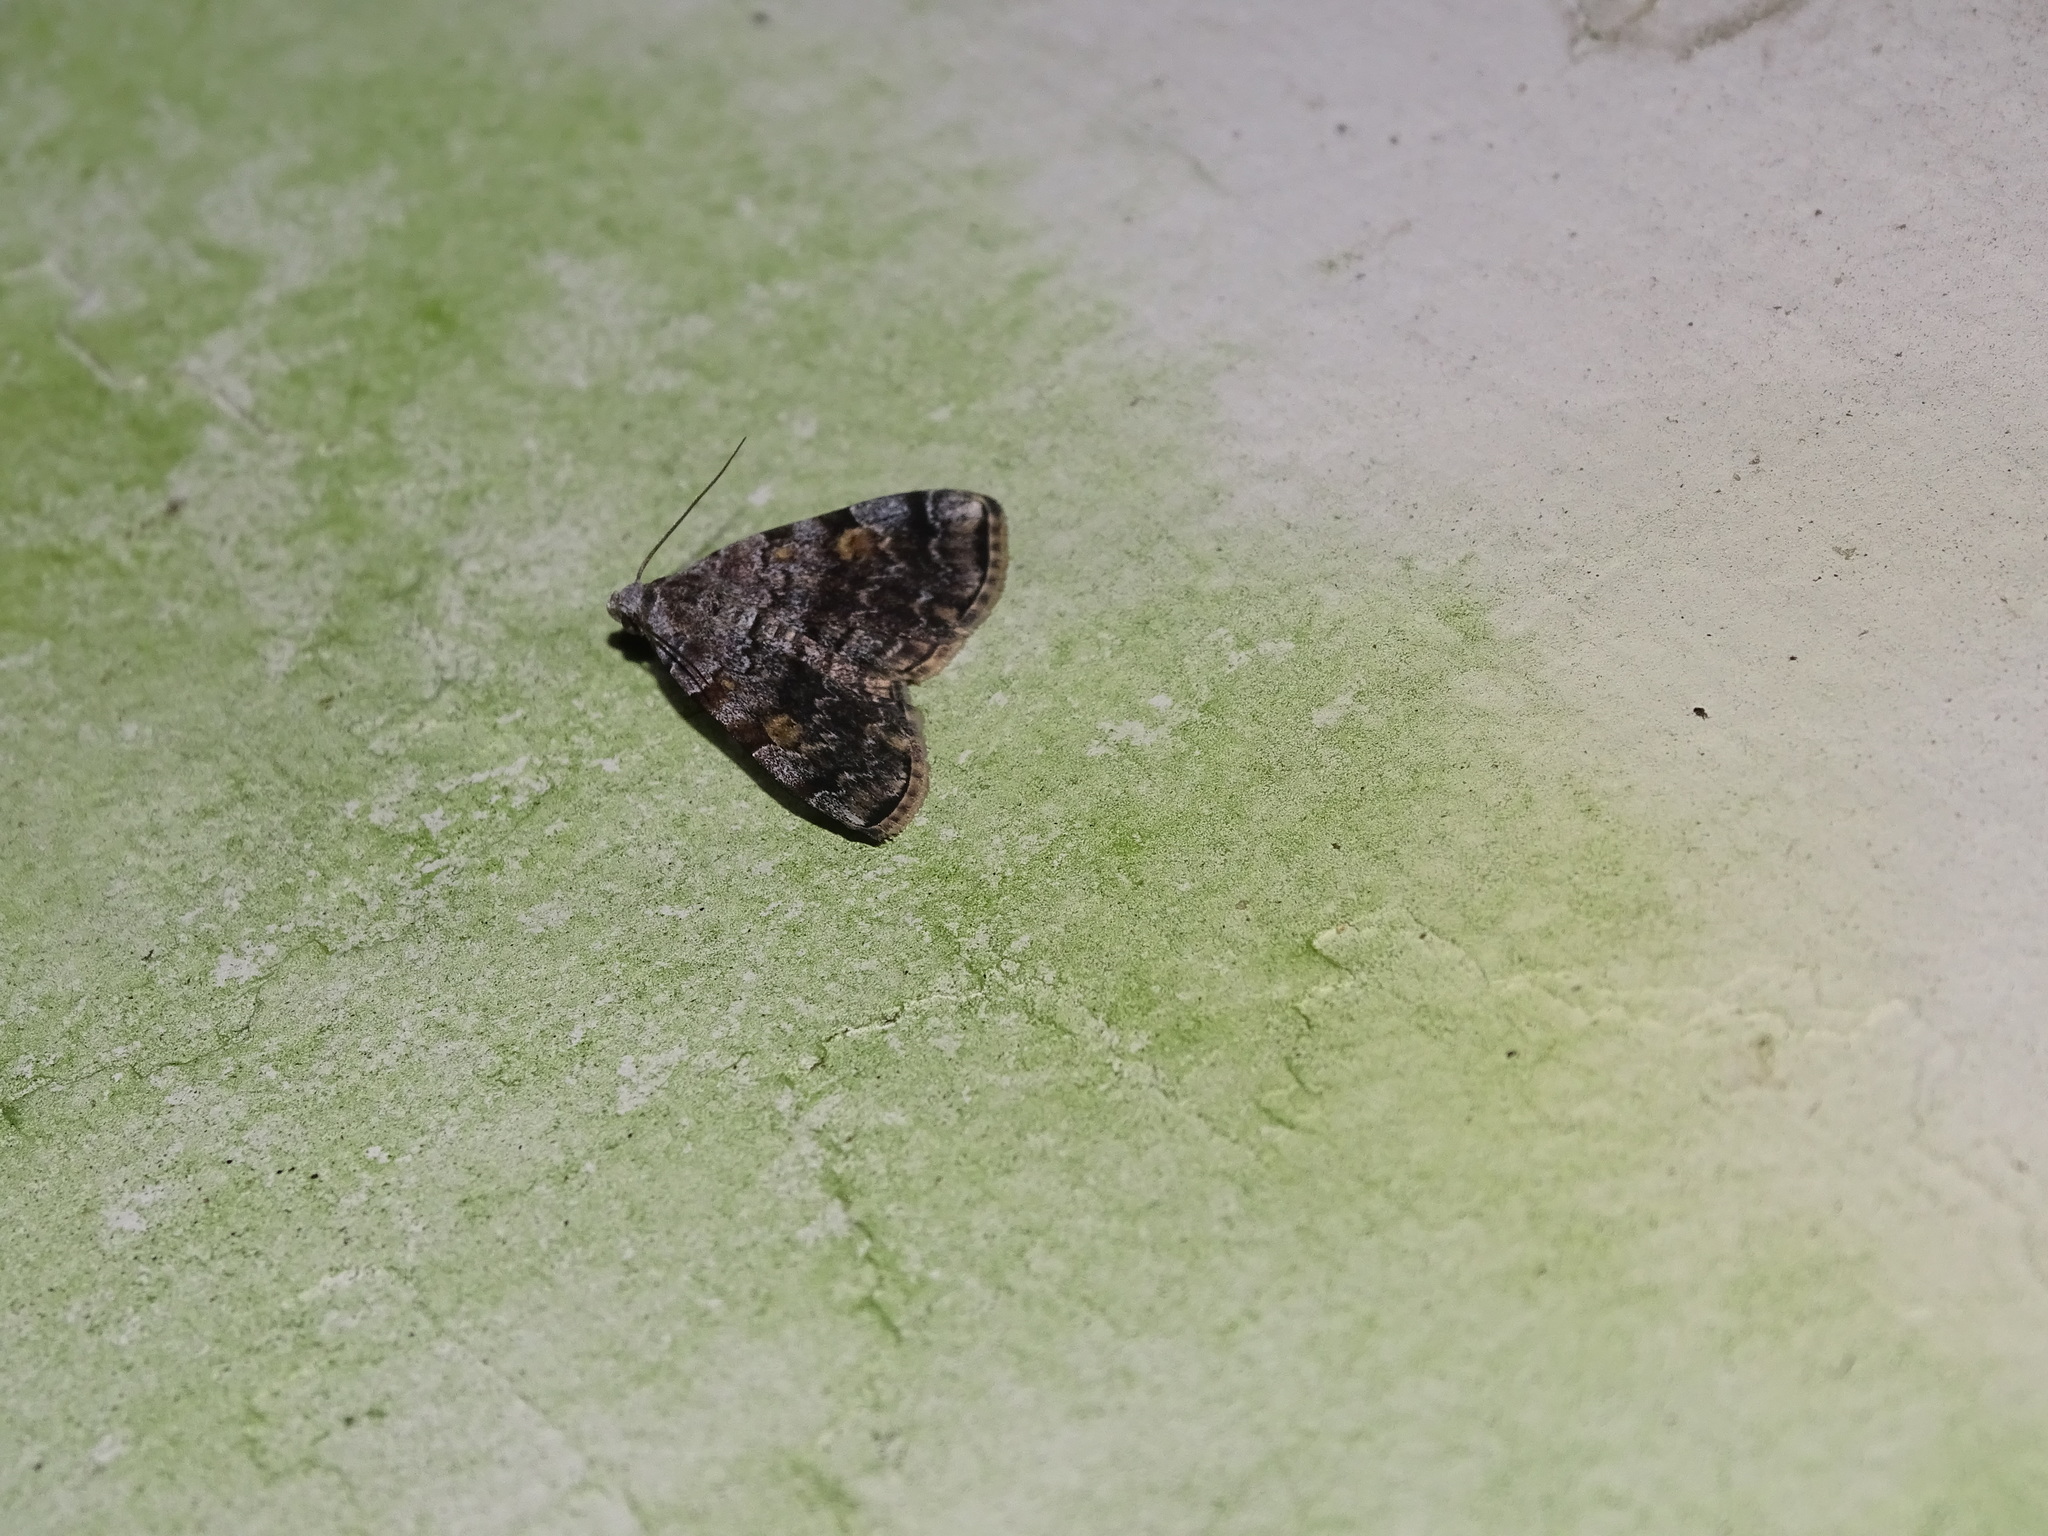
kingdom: Animalia
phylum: Arthropoda
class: Insecta
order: Lepidoptera
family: Erebidae
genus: Idia
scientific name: Idia americalis
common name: American idia moth
